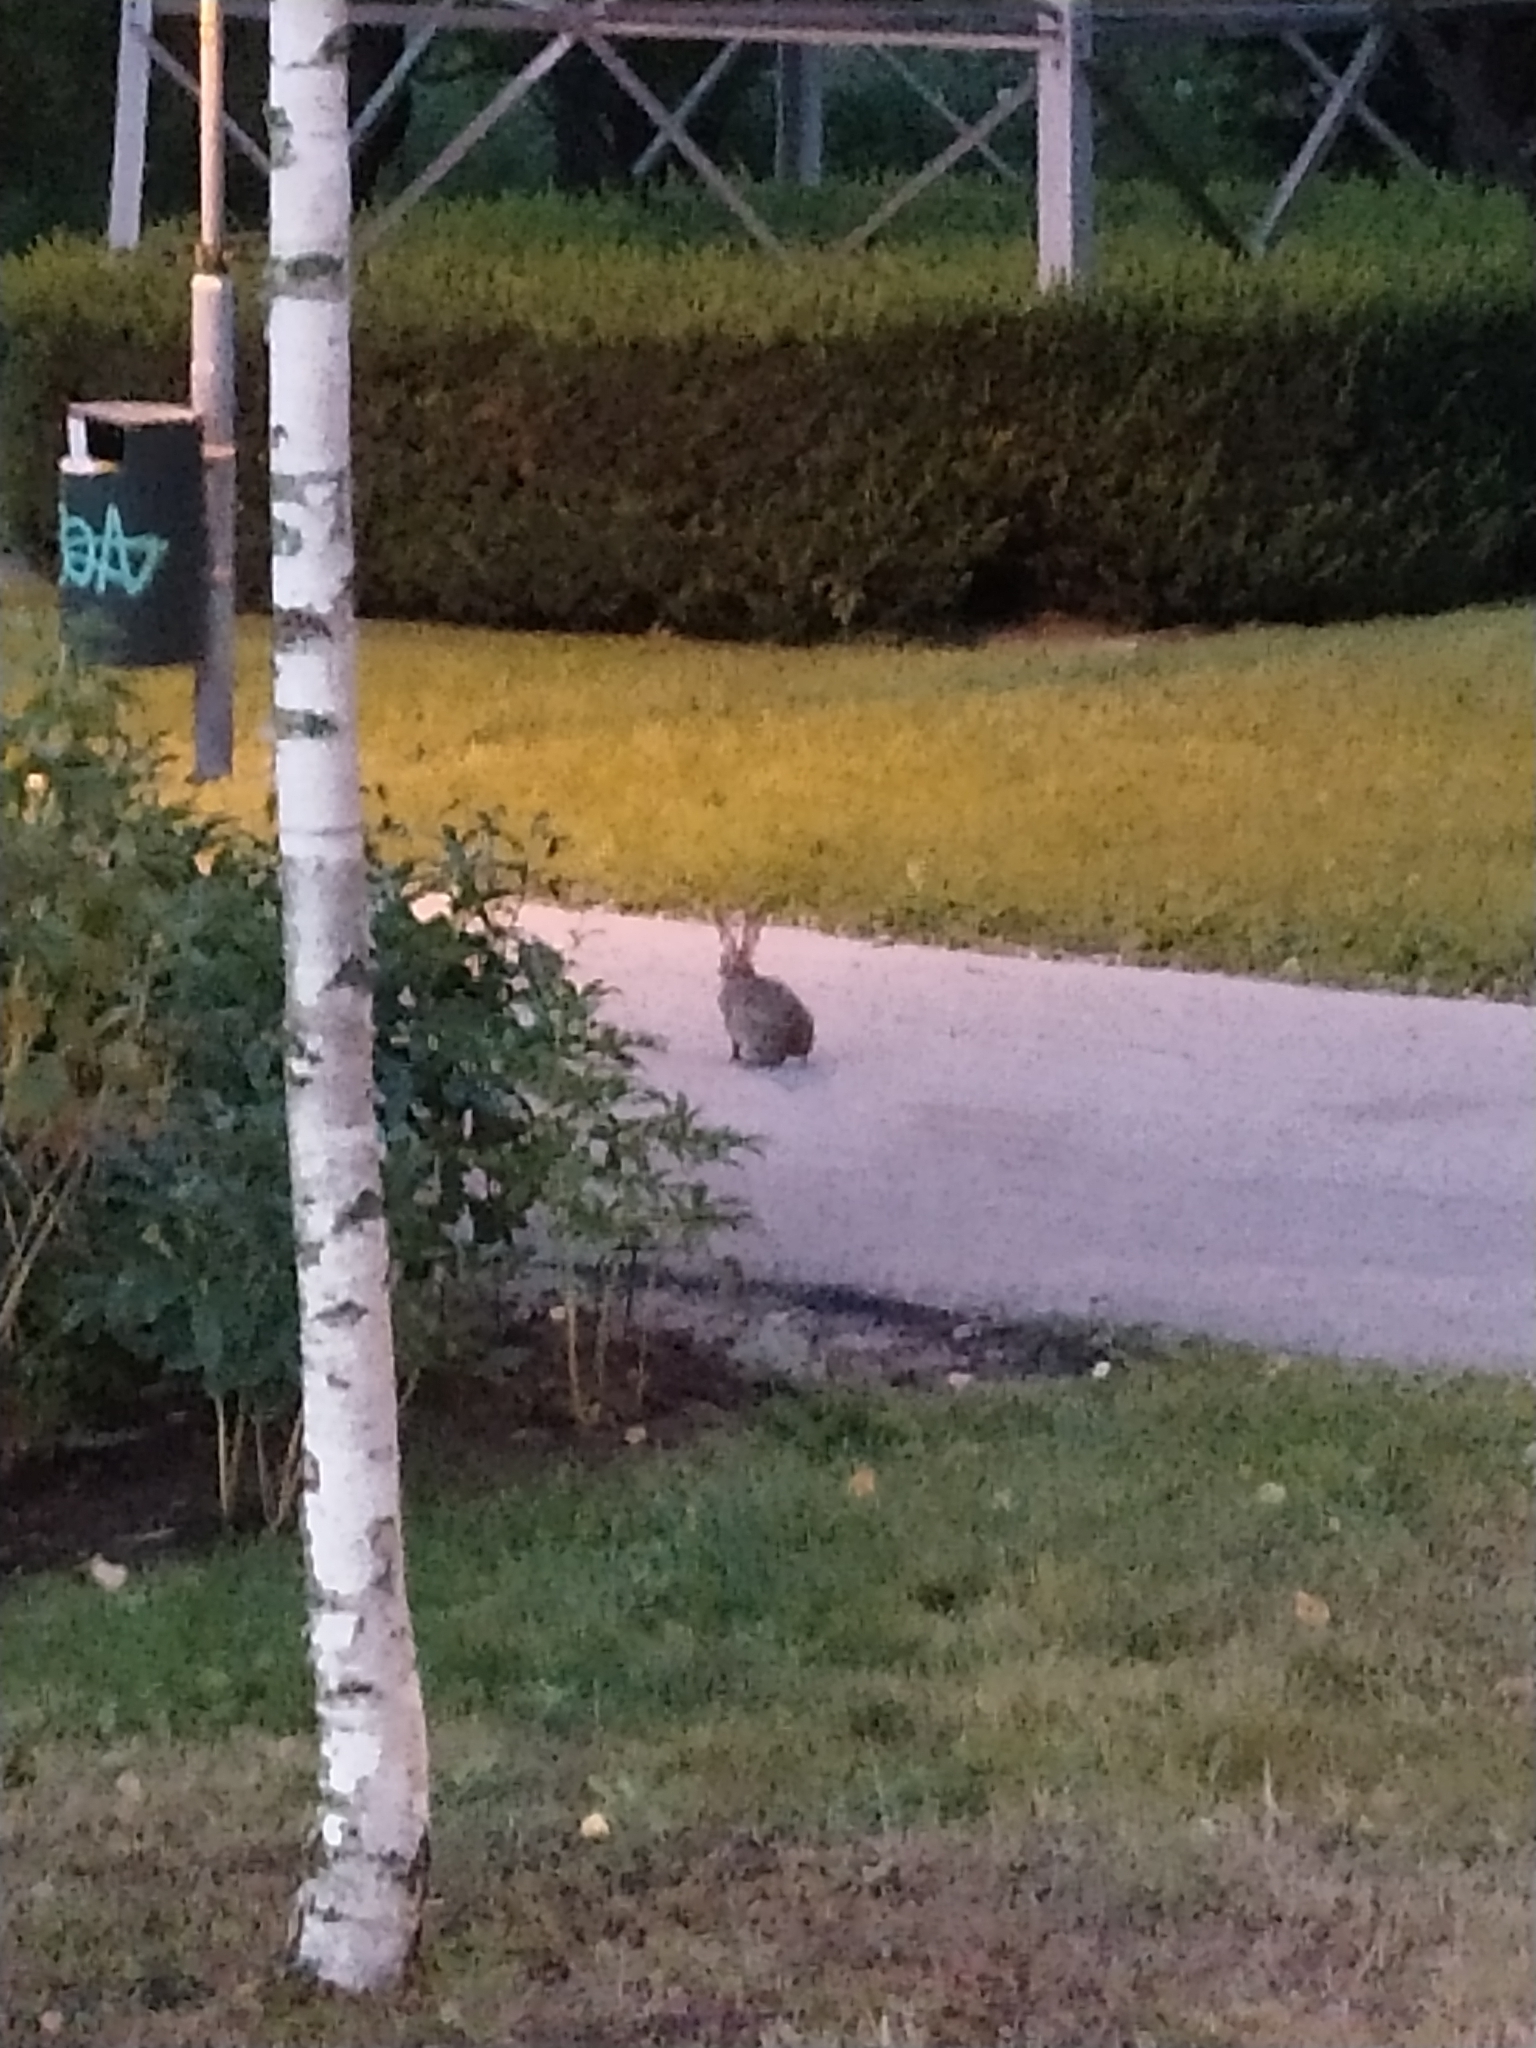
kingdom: Animalia
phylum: Chordata
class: Mammalia
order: Lagomorpha
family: Leporidae
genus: Oryctolagus
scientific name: Oryctolagus cuniculus
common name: European rabbit
